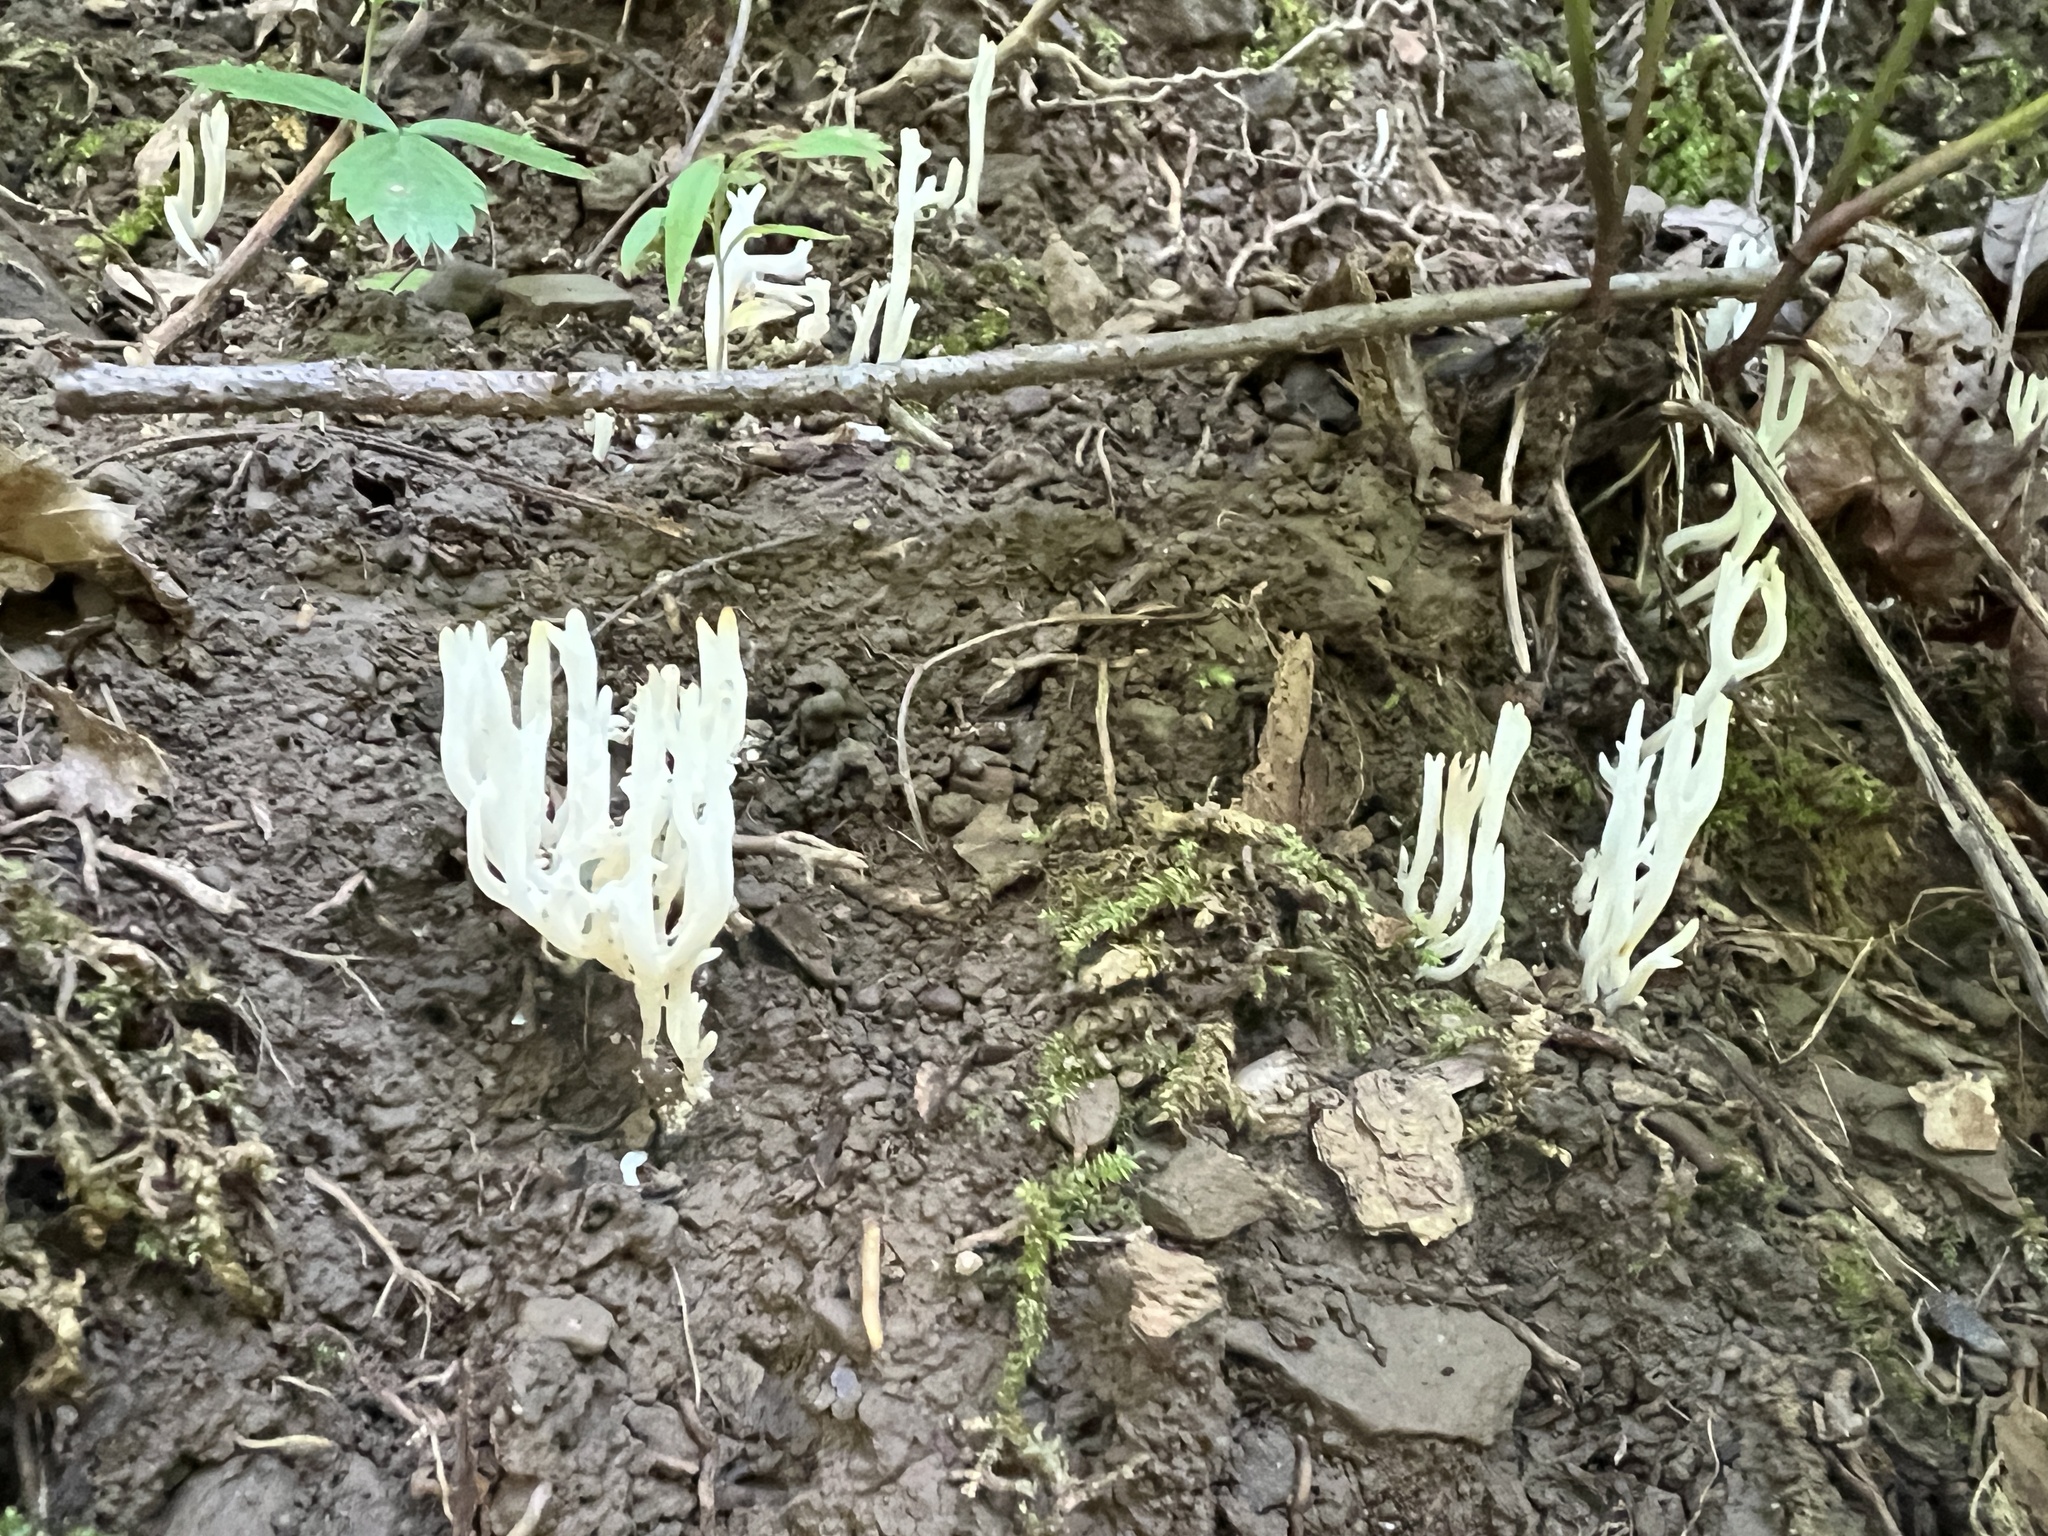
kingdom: Fungi
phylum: Basidiomycota
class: Agaricomycetes
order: Agaricales
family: Clavariaceae
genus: Ramariopsis
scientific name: Ramariopsis kunzei
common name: Ivory coral
